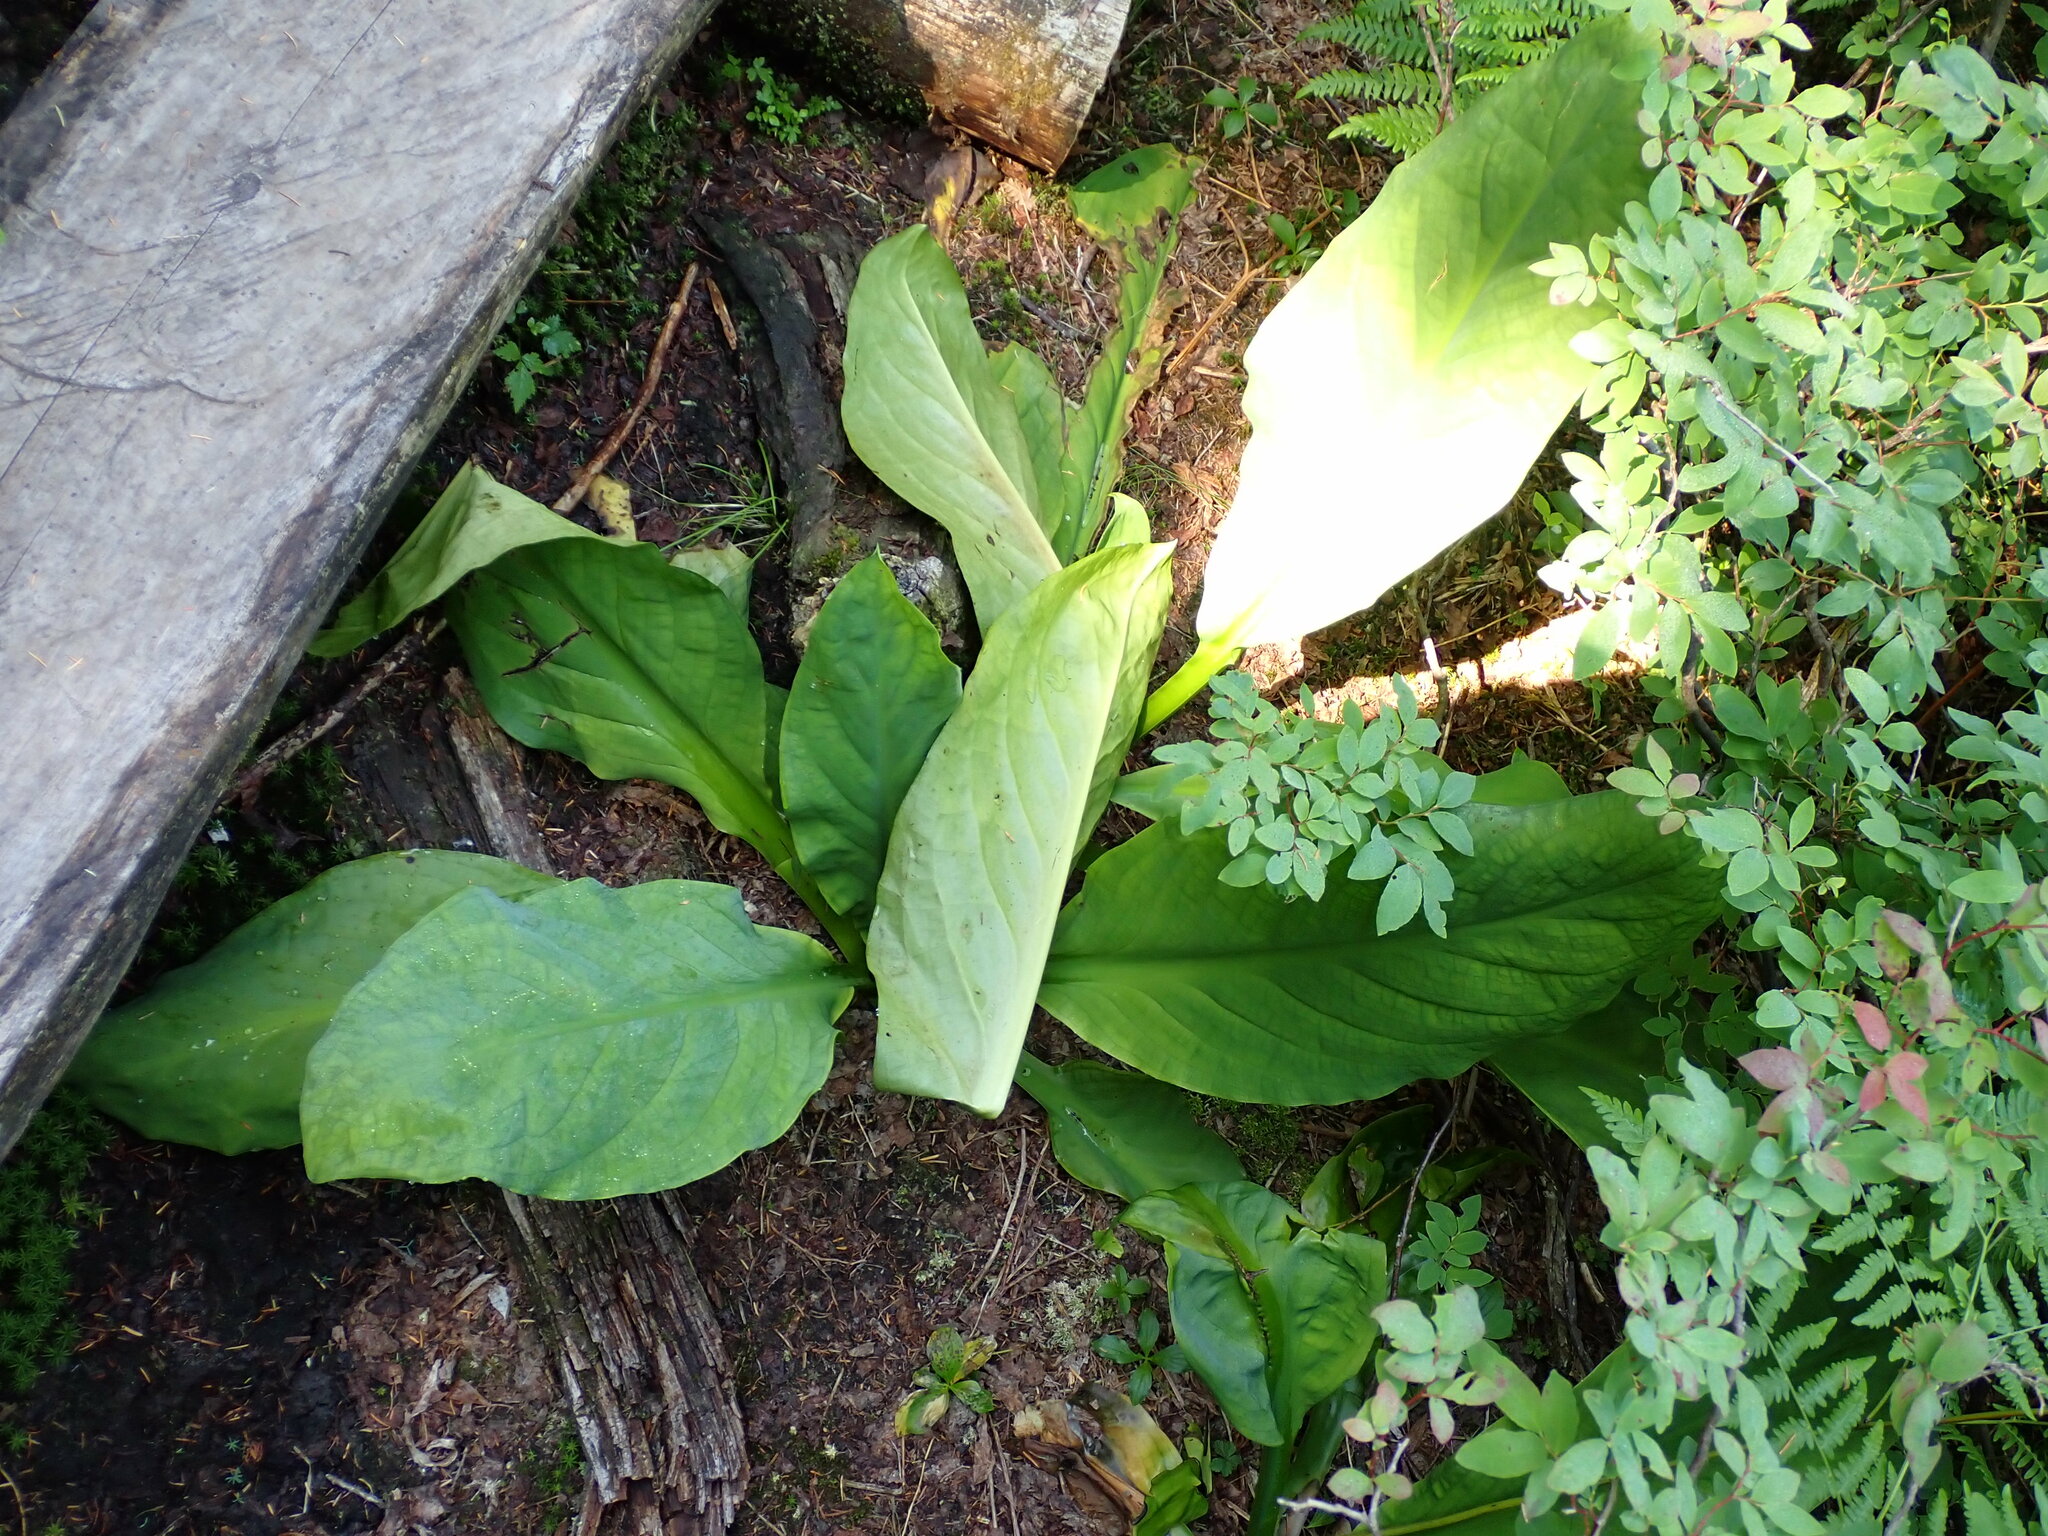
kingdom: Plantae
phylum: Tracheophyta
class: Liliopsida
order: Alismatales
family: Araceae
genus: Lysichiton
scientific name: Lysichiton americanus
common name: American skunk cabbage
